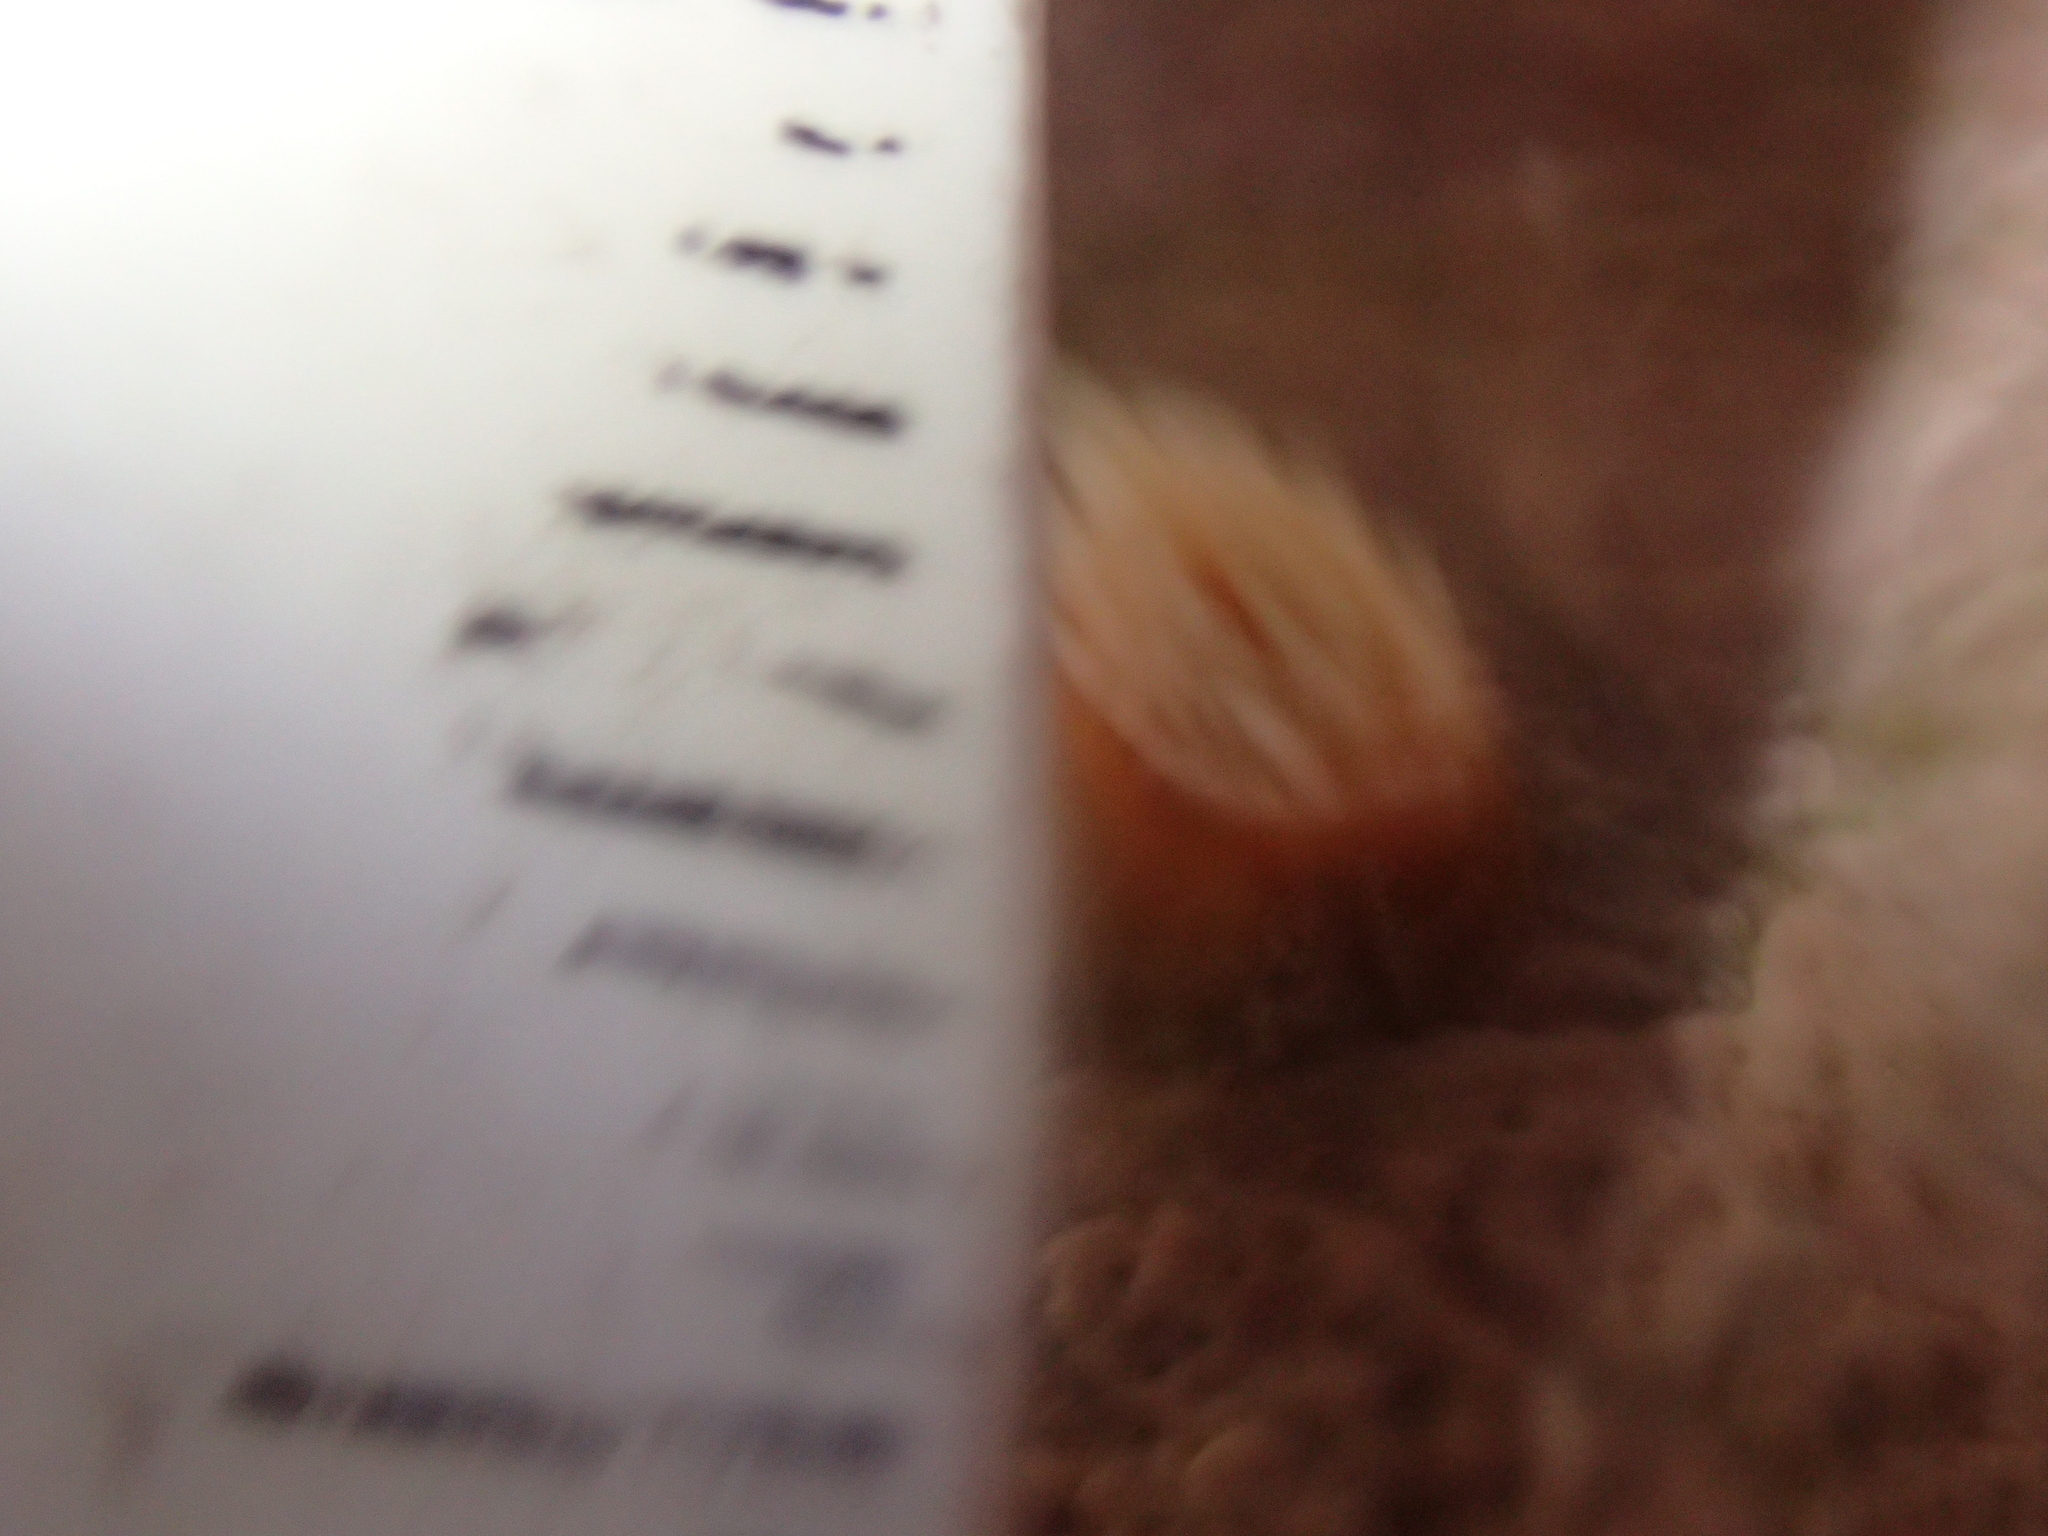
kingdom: Animalia
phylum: Cnidaria
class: Anthozoa
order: Actiniaria
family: Sagartiidae
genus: Anthothoe
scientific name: Anthothoe albocincta
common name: Orange striped anemone
